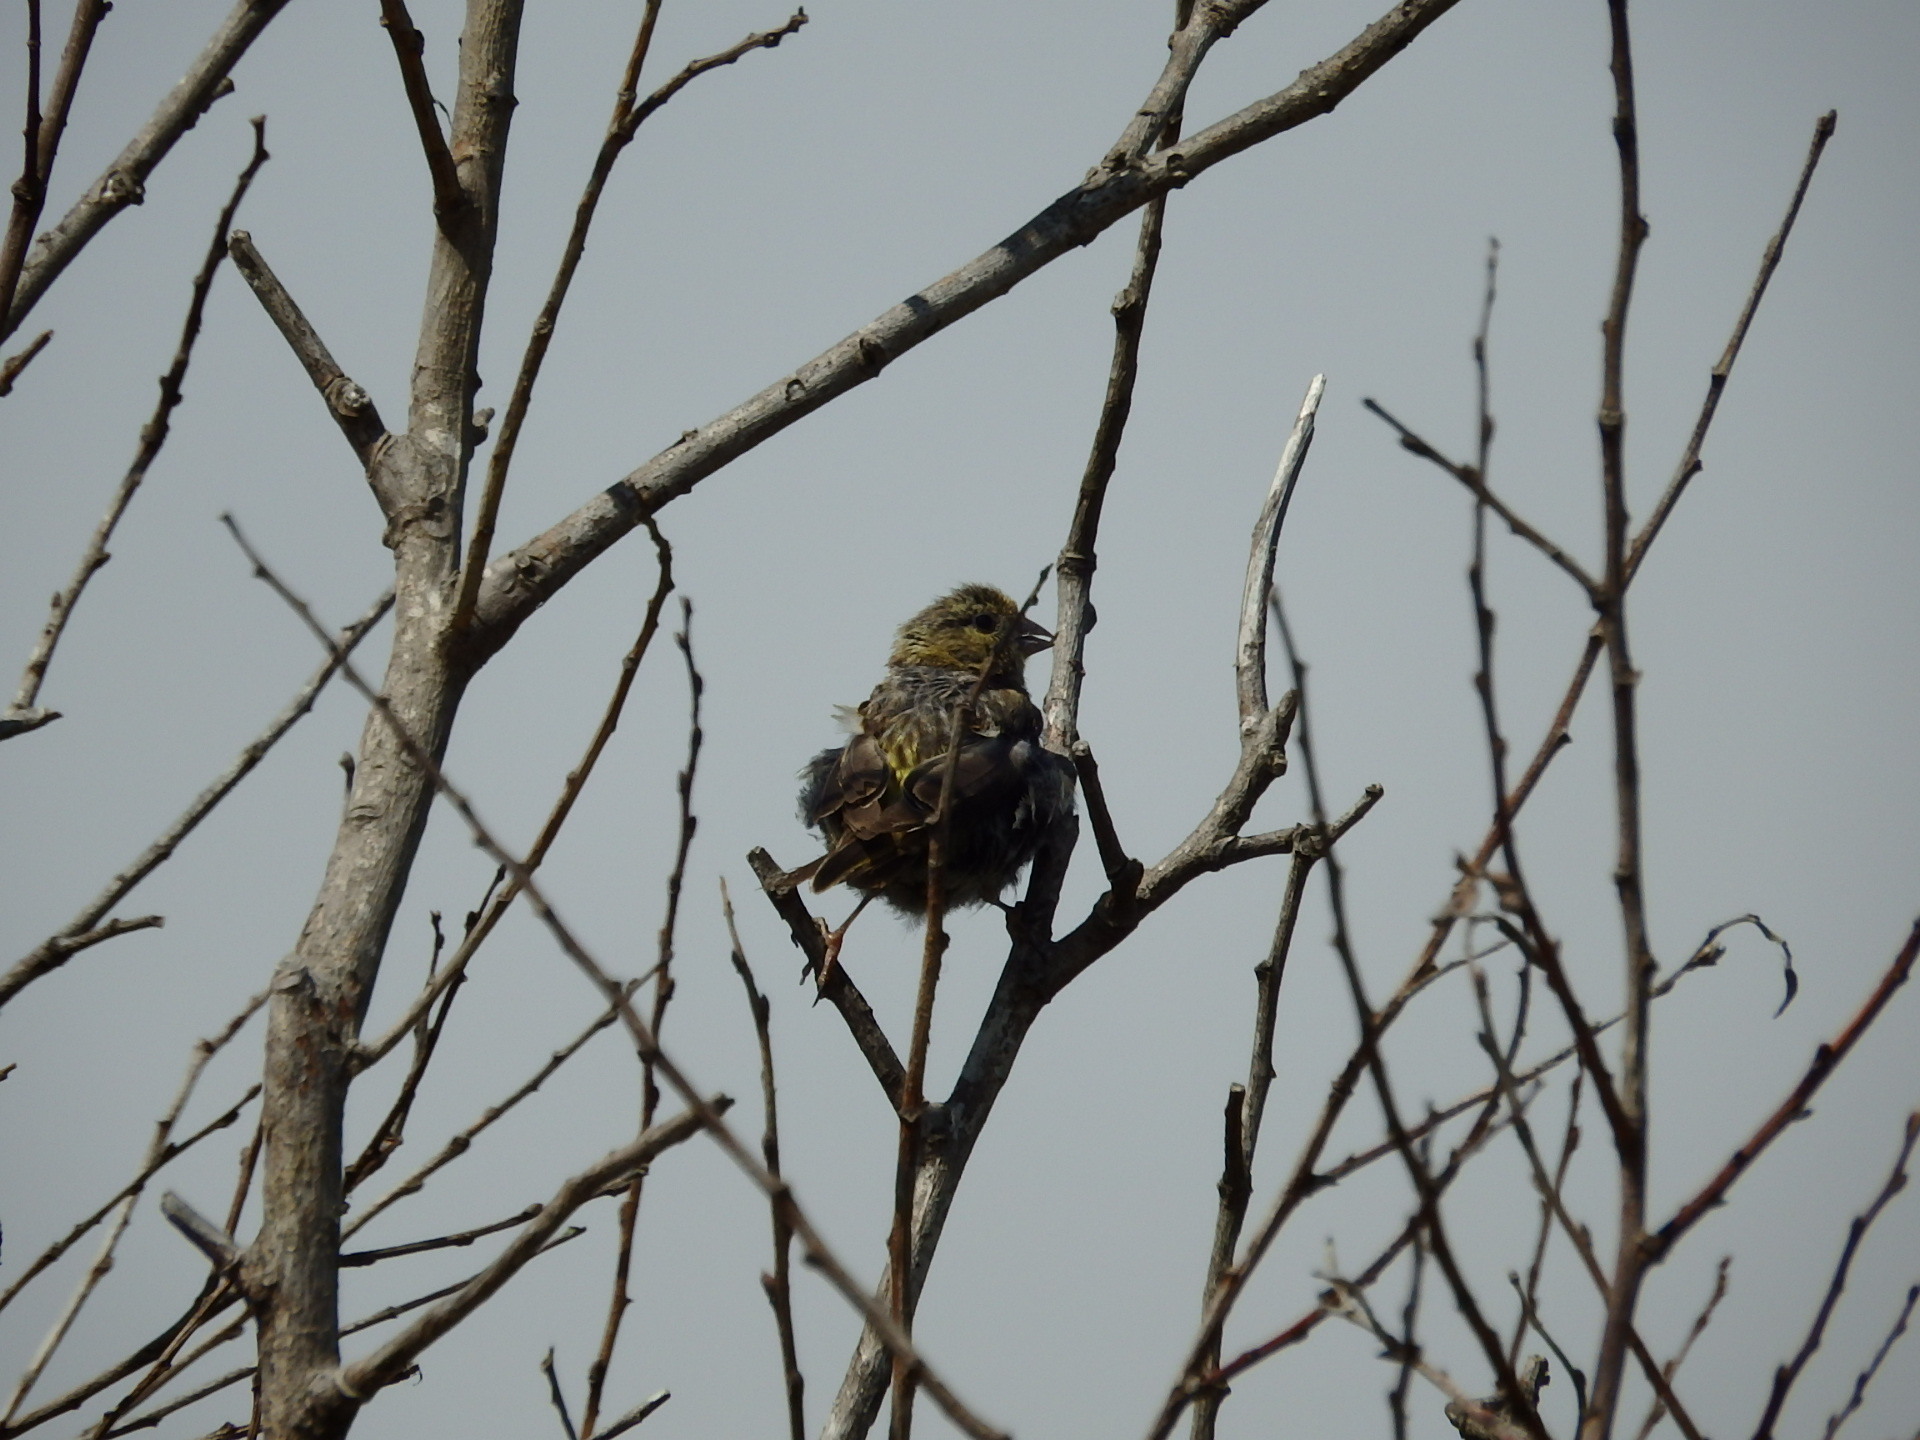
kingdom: Animalia
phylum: Chordata
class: Aves
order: Passeriformes
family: Fringillidae
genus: Serinus
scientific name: Serinus serinus
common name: European serin
